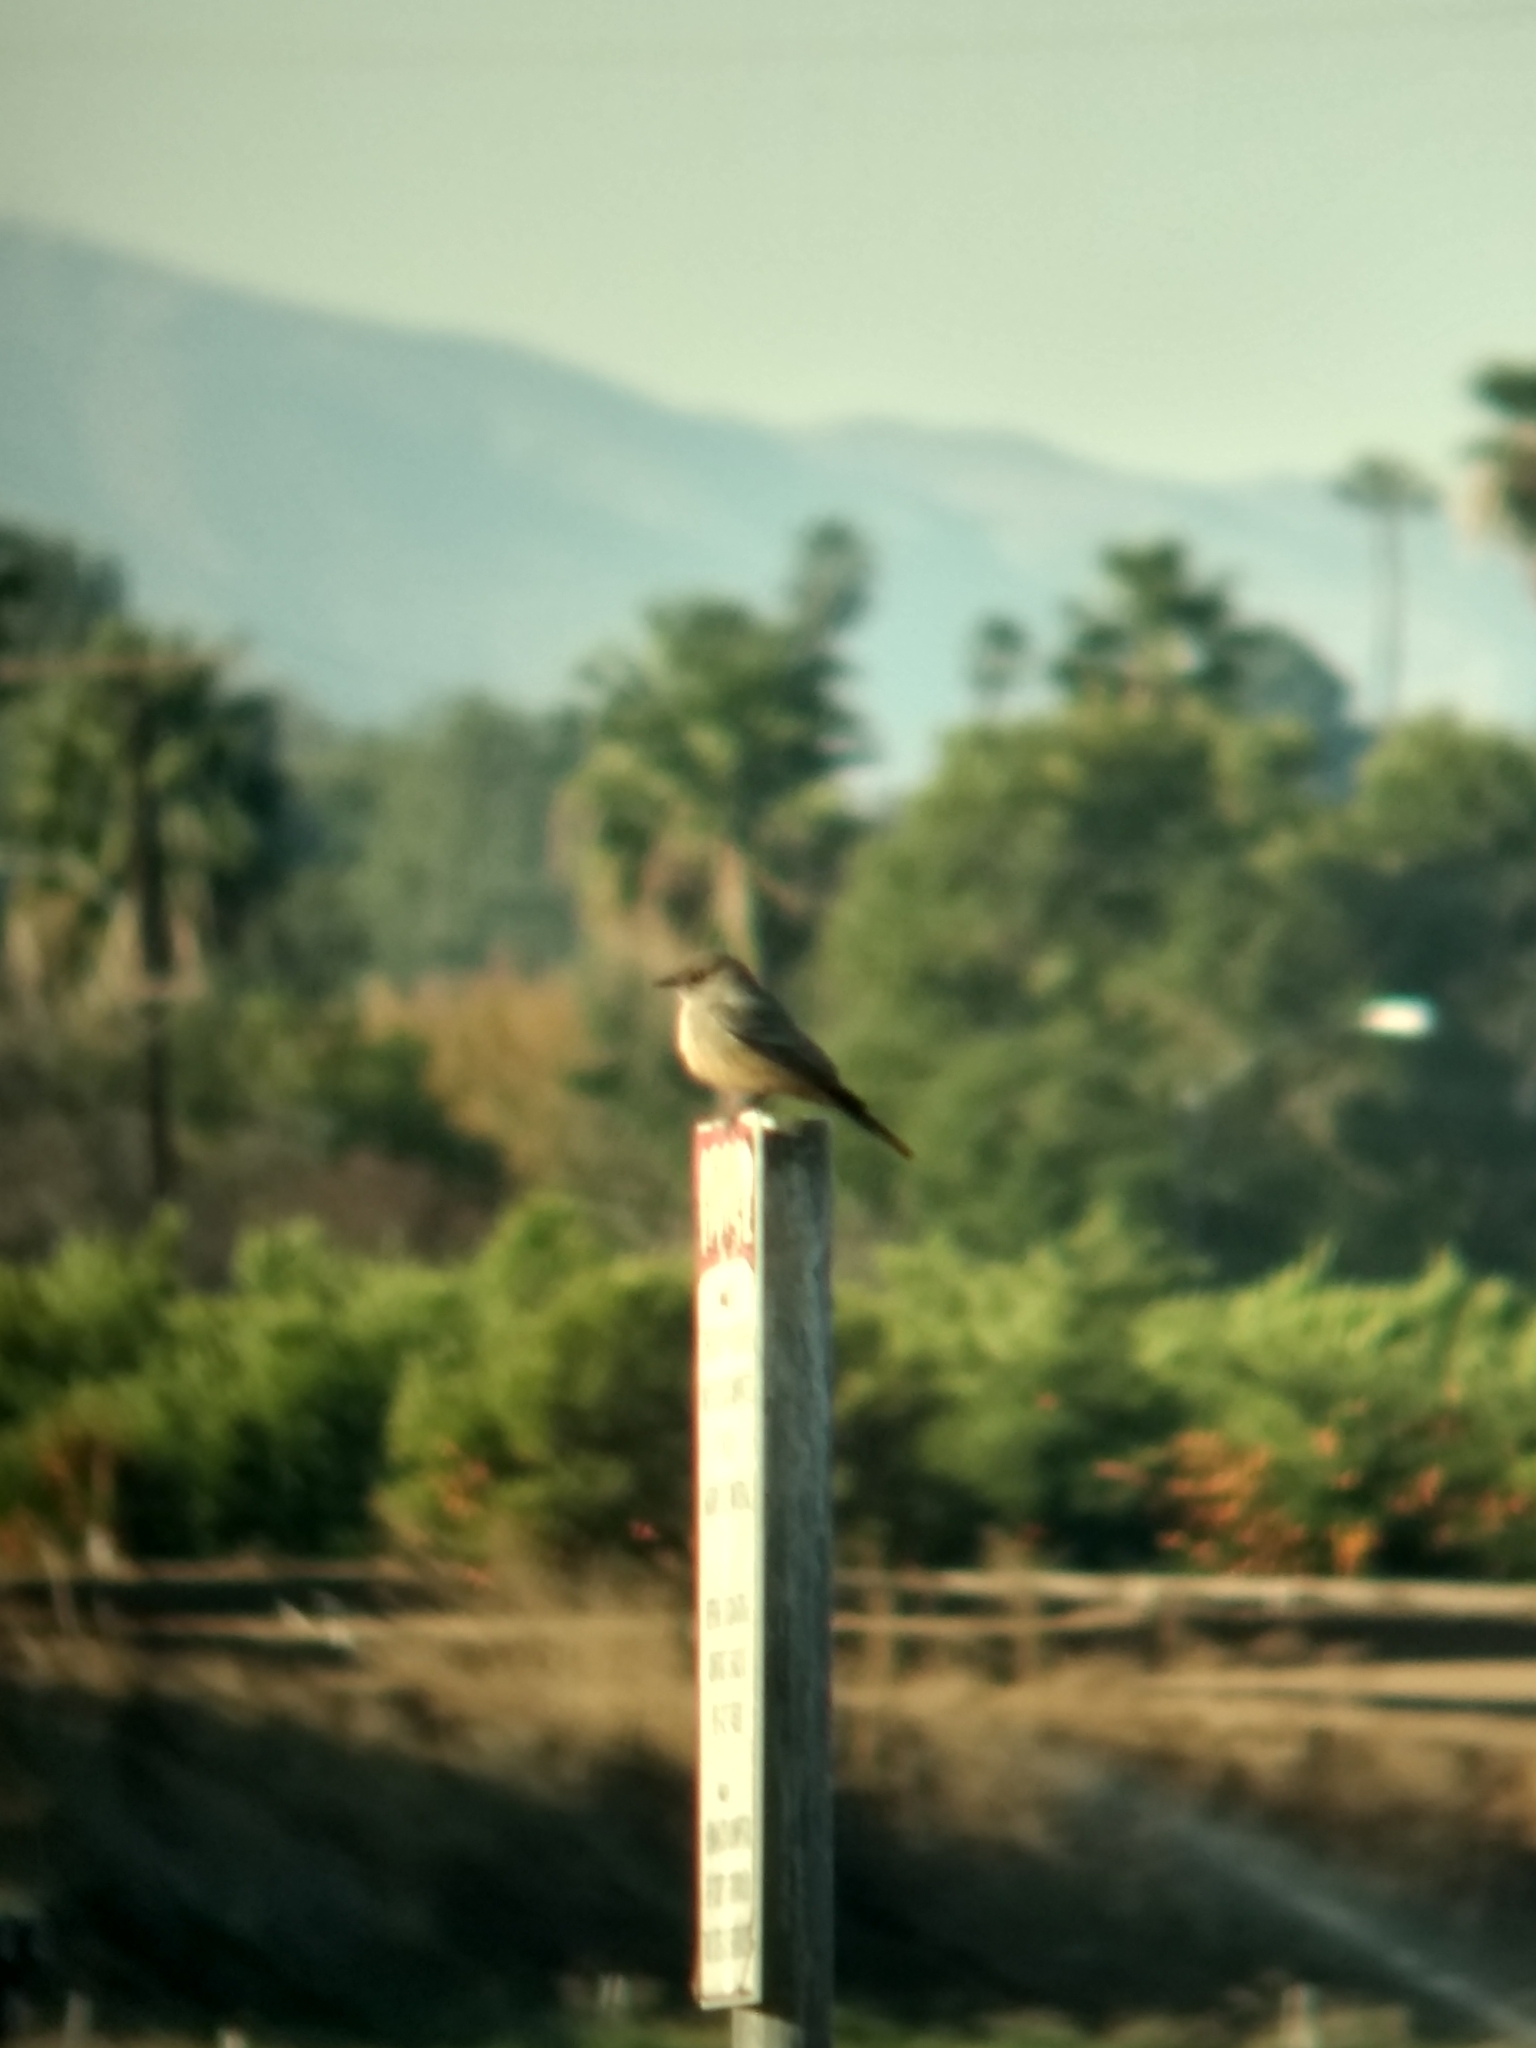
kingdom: Animalia
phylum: Chordata
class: Aves
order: Passeriformes
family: Tyrannidae
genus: Sayornis
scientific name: Sayornis saya
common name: Say's phoebe
